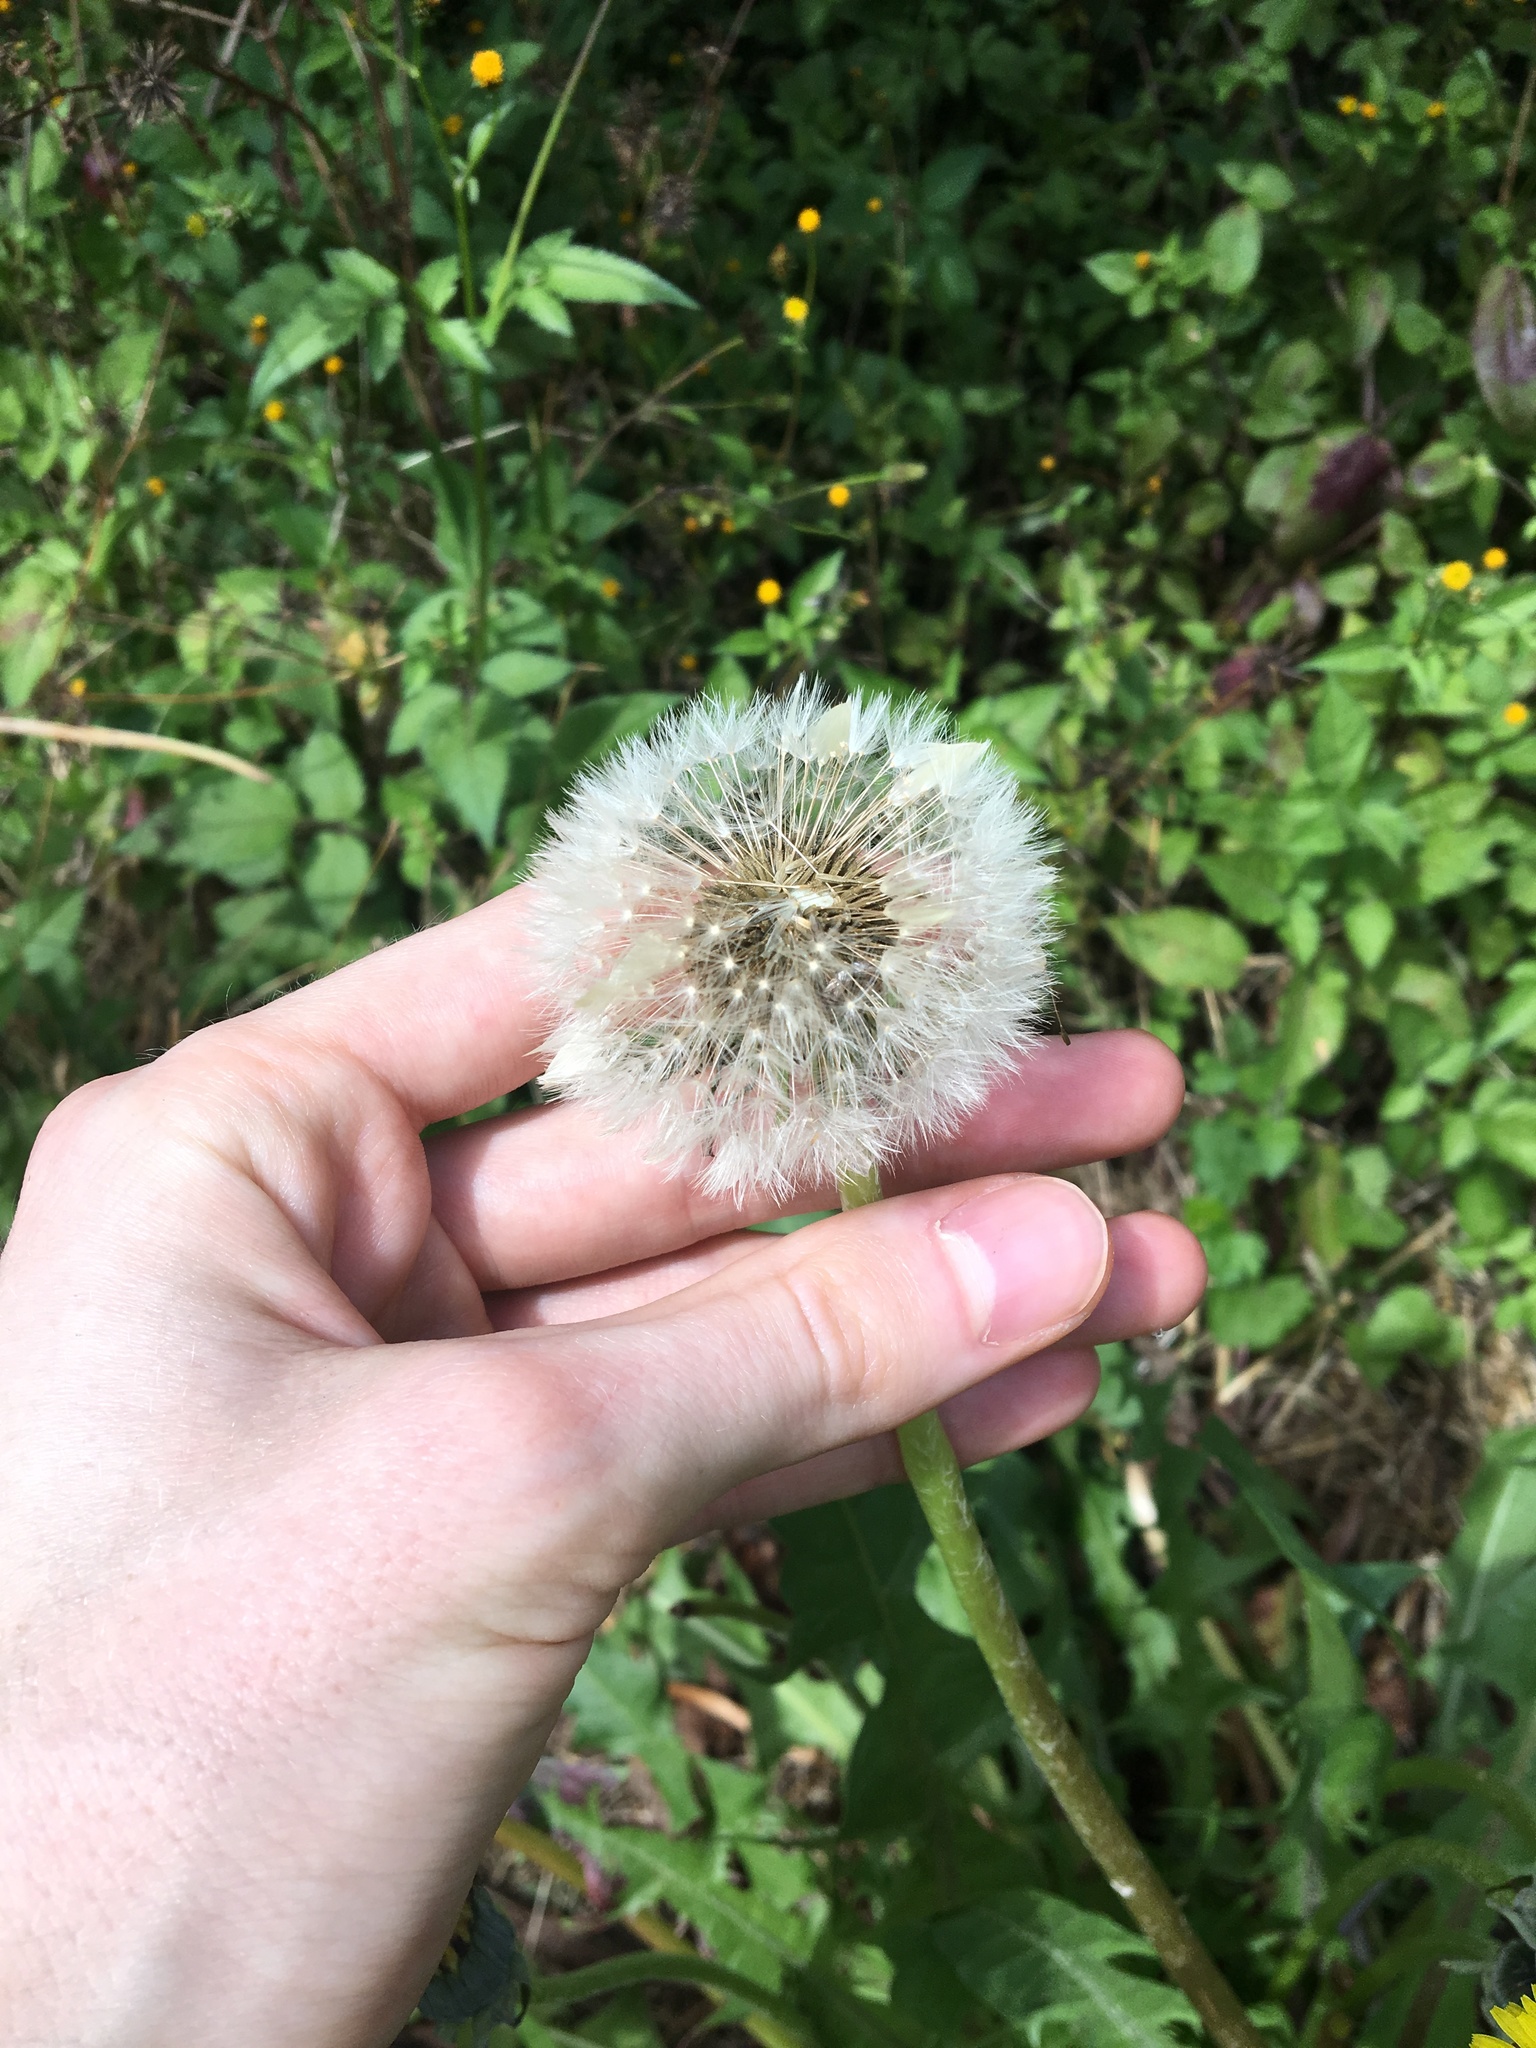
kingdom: Plantae
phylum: Tracheophyta
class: Magnoliopsida
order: Asterales
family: Asteraceae
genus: Taraxacum
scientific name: Taraxacum officinale
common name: Common dandelion
